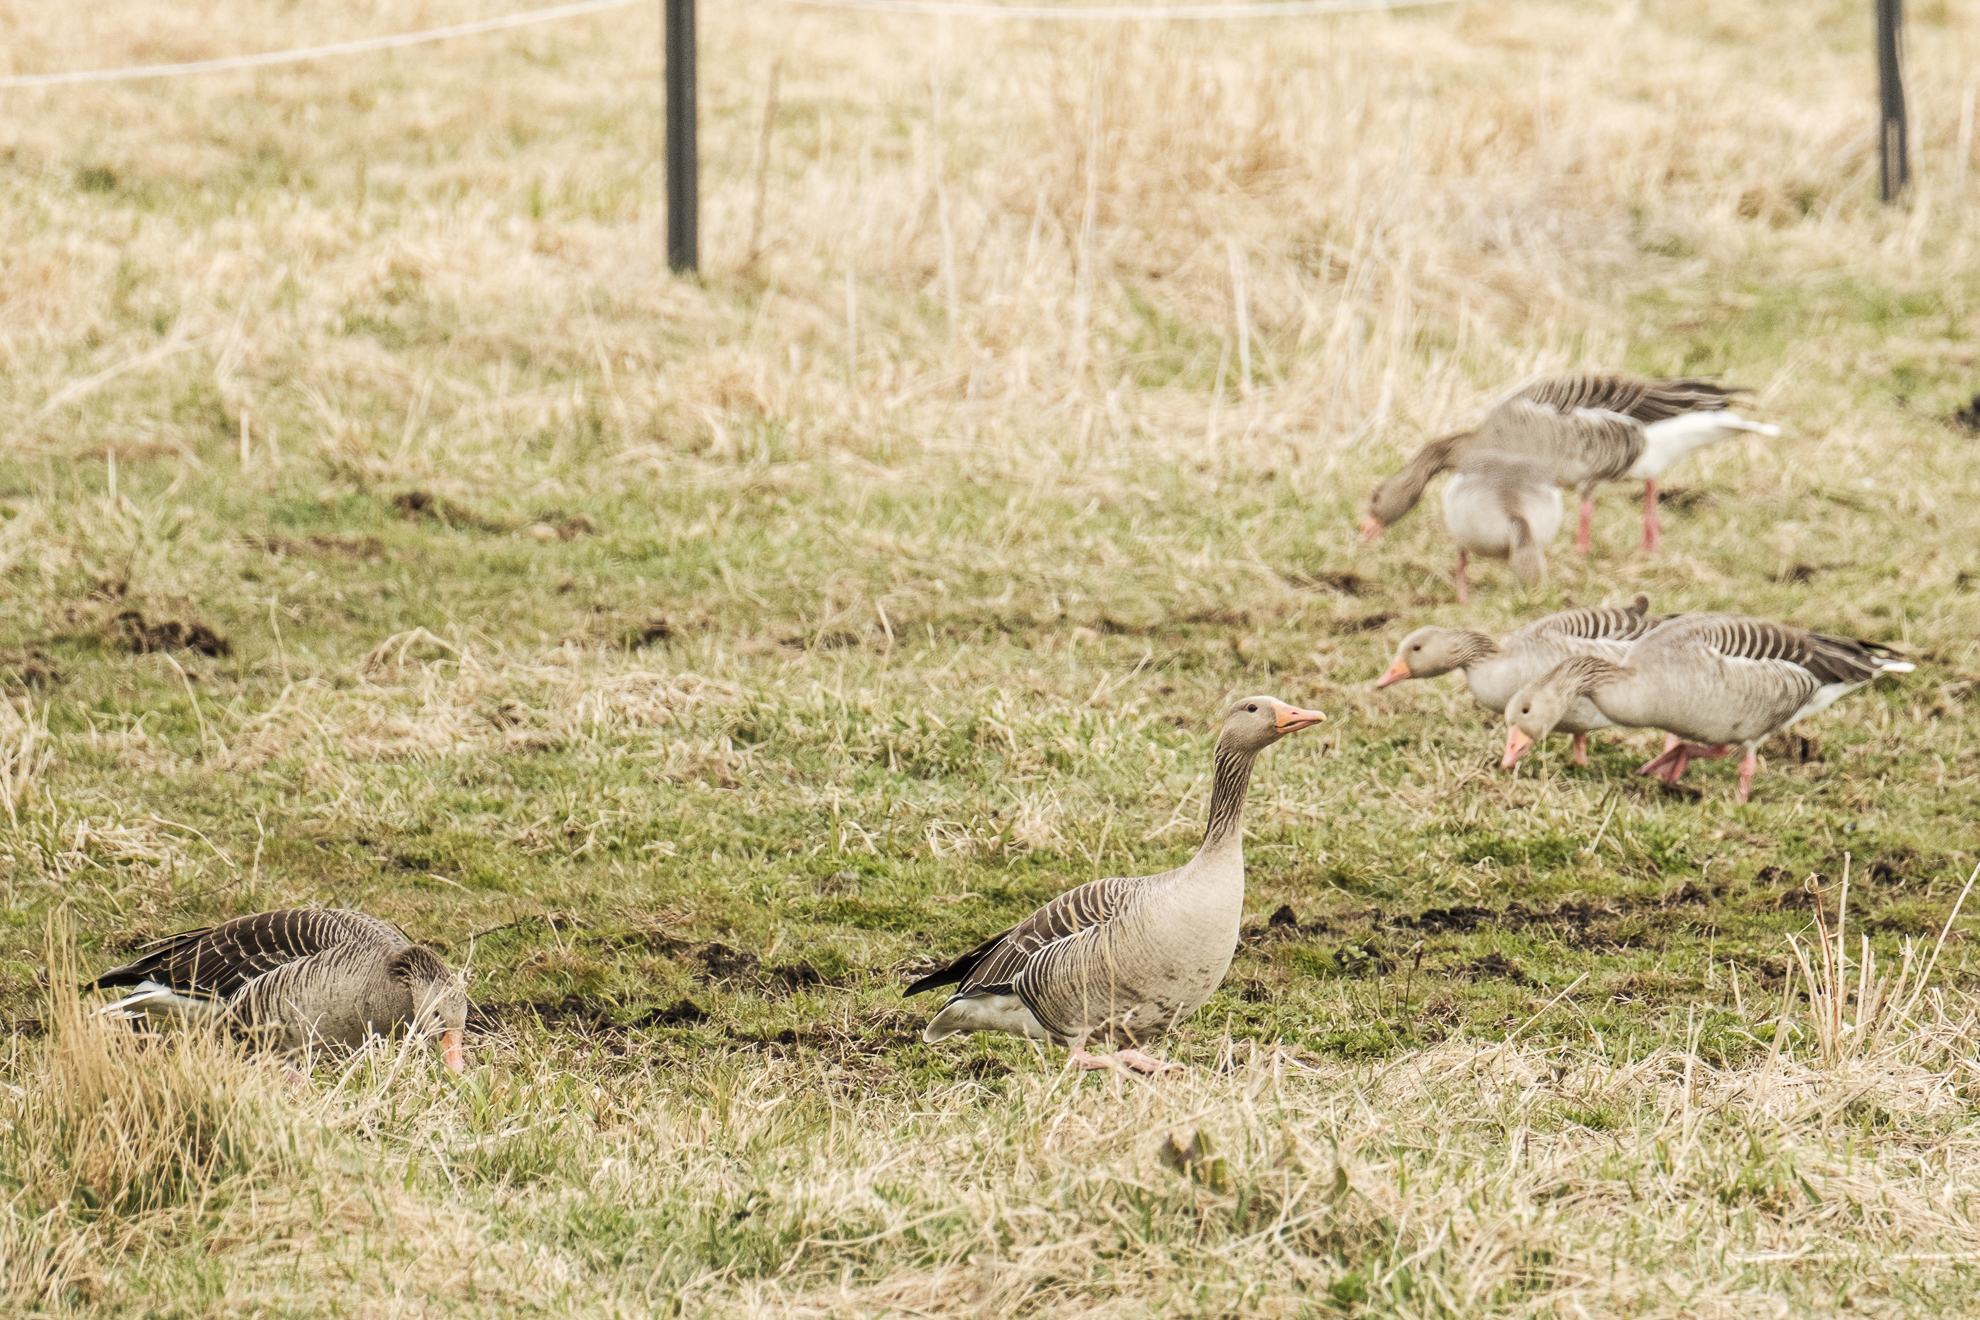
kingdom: Animalia
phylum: Chordata
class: Aves
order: Anseriformes
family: Anatidae
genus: Anser
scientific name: Anser anser
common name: Greylag goose
